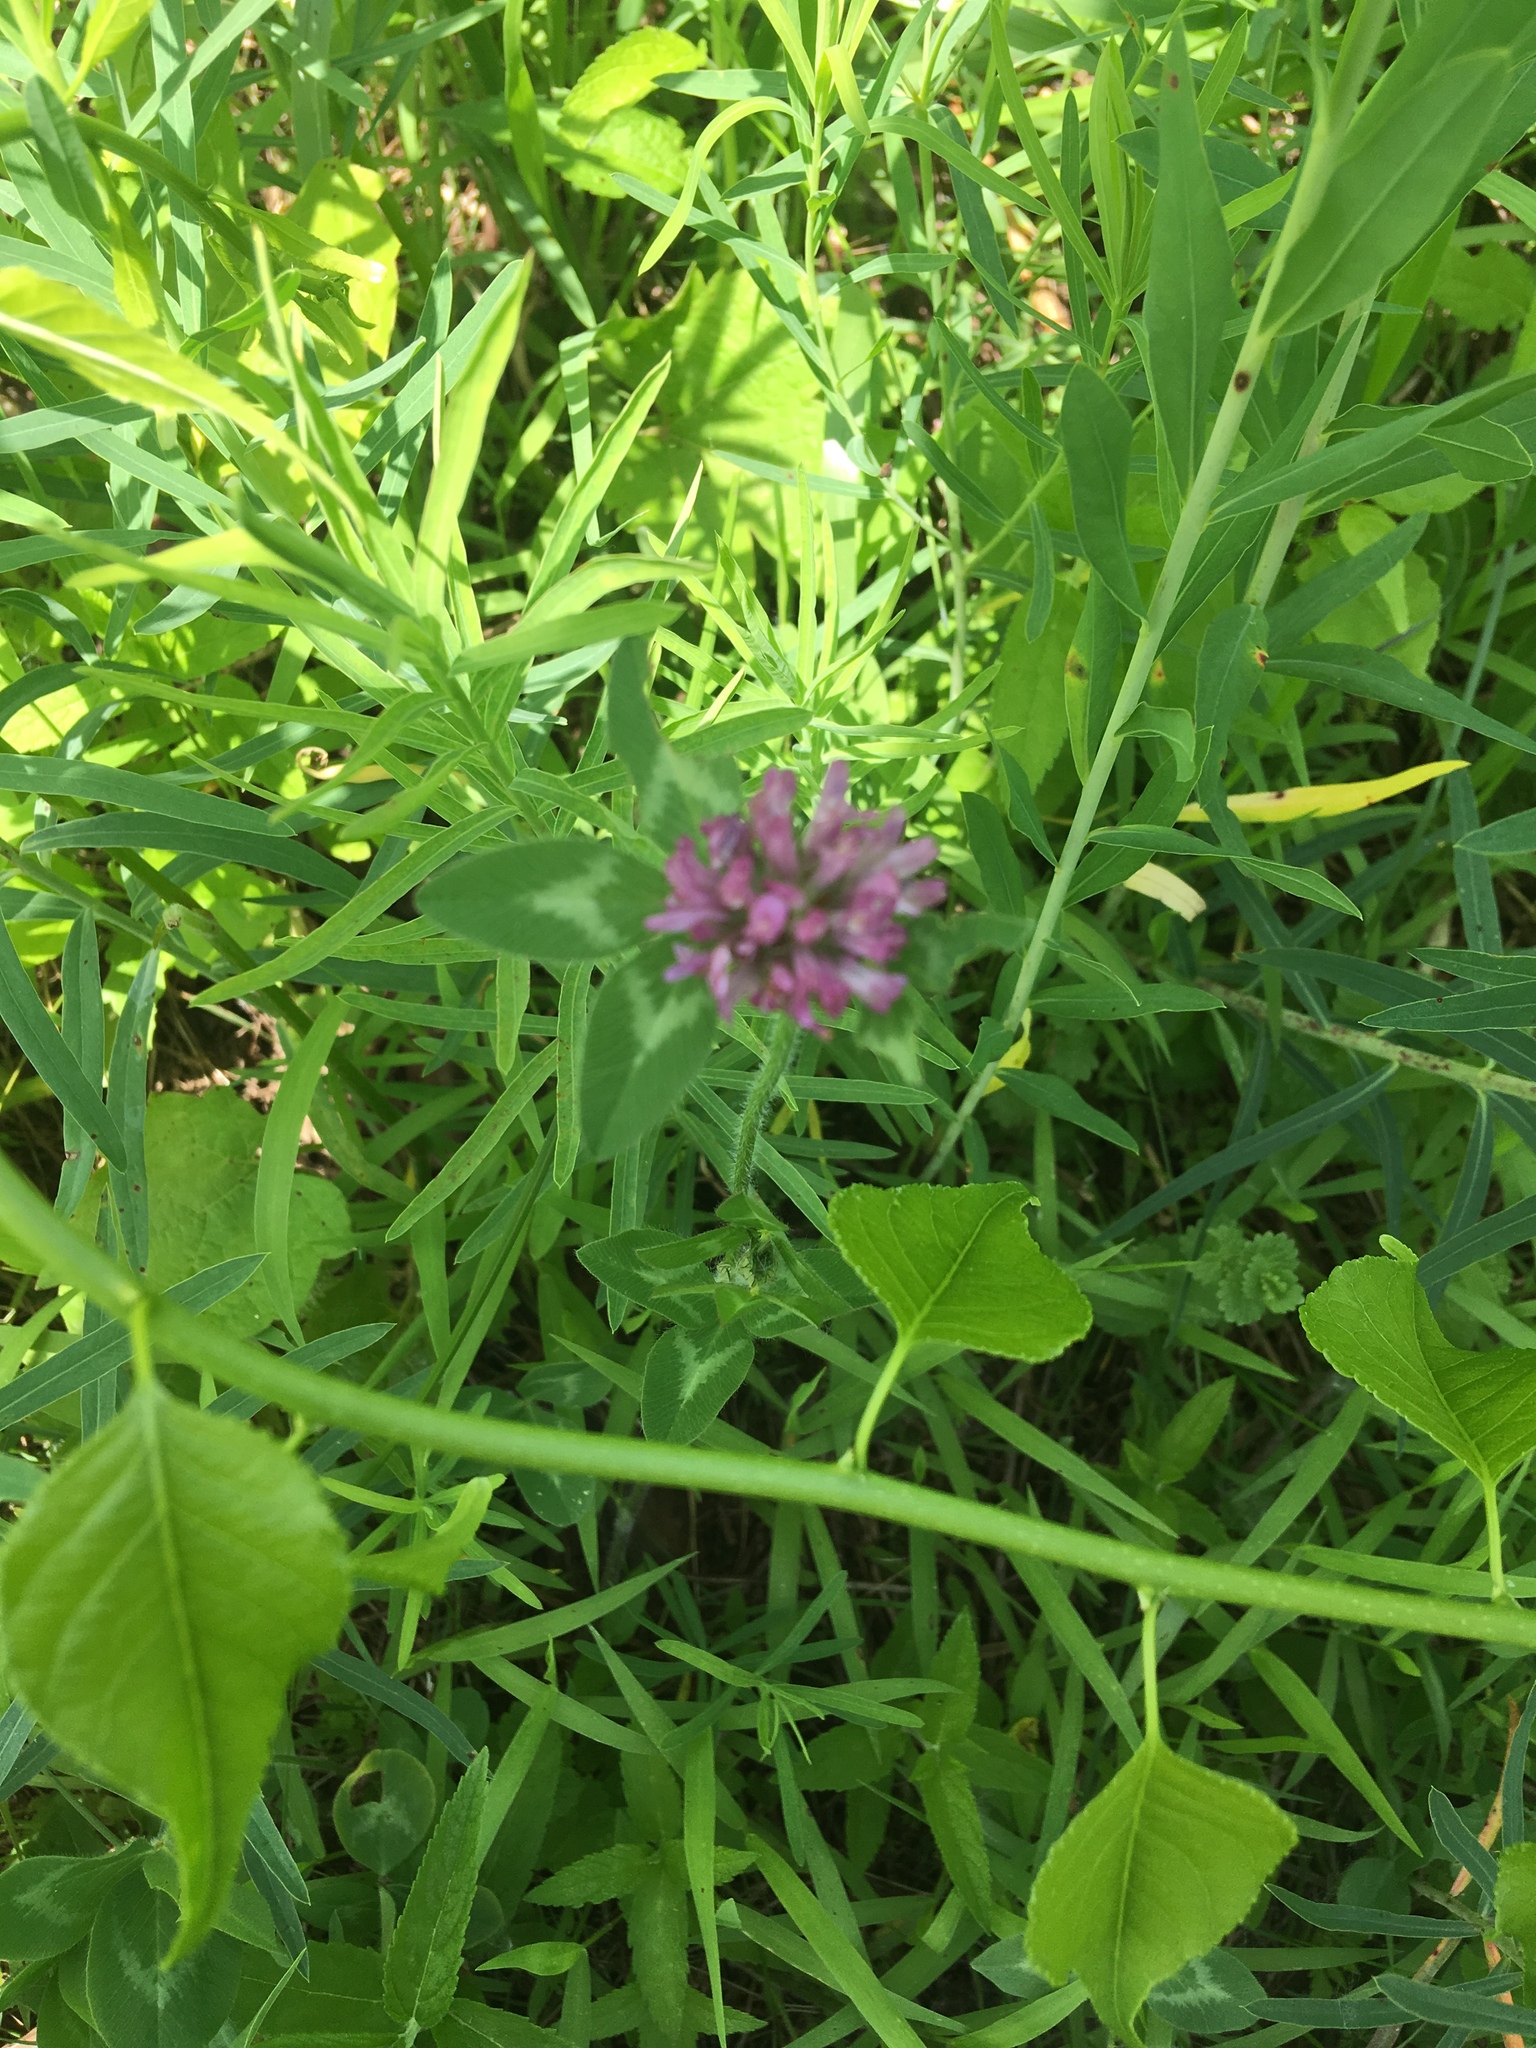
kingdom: Plantae
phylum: Tracheophyta
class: Magnoliopsida
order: Fabales
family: Fabaceae
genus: Trifolium
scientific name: Trifolium pratense
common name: Red clover
